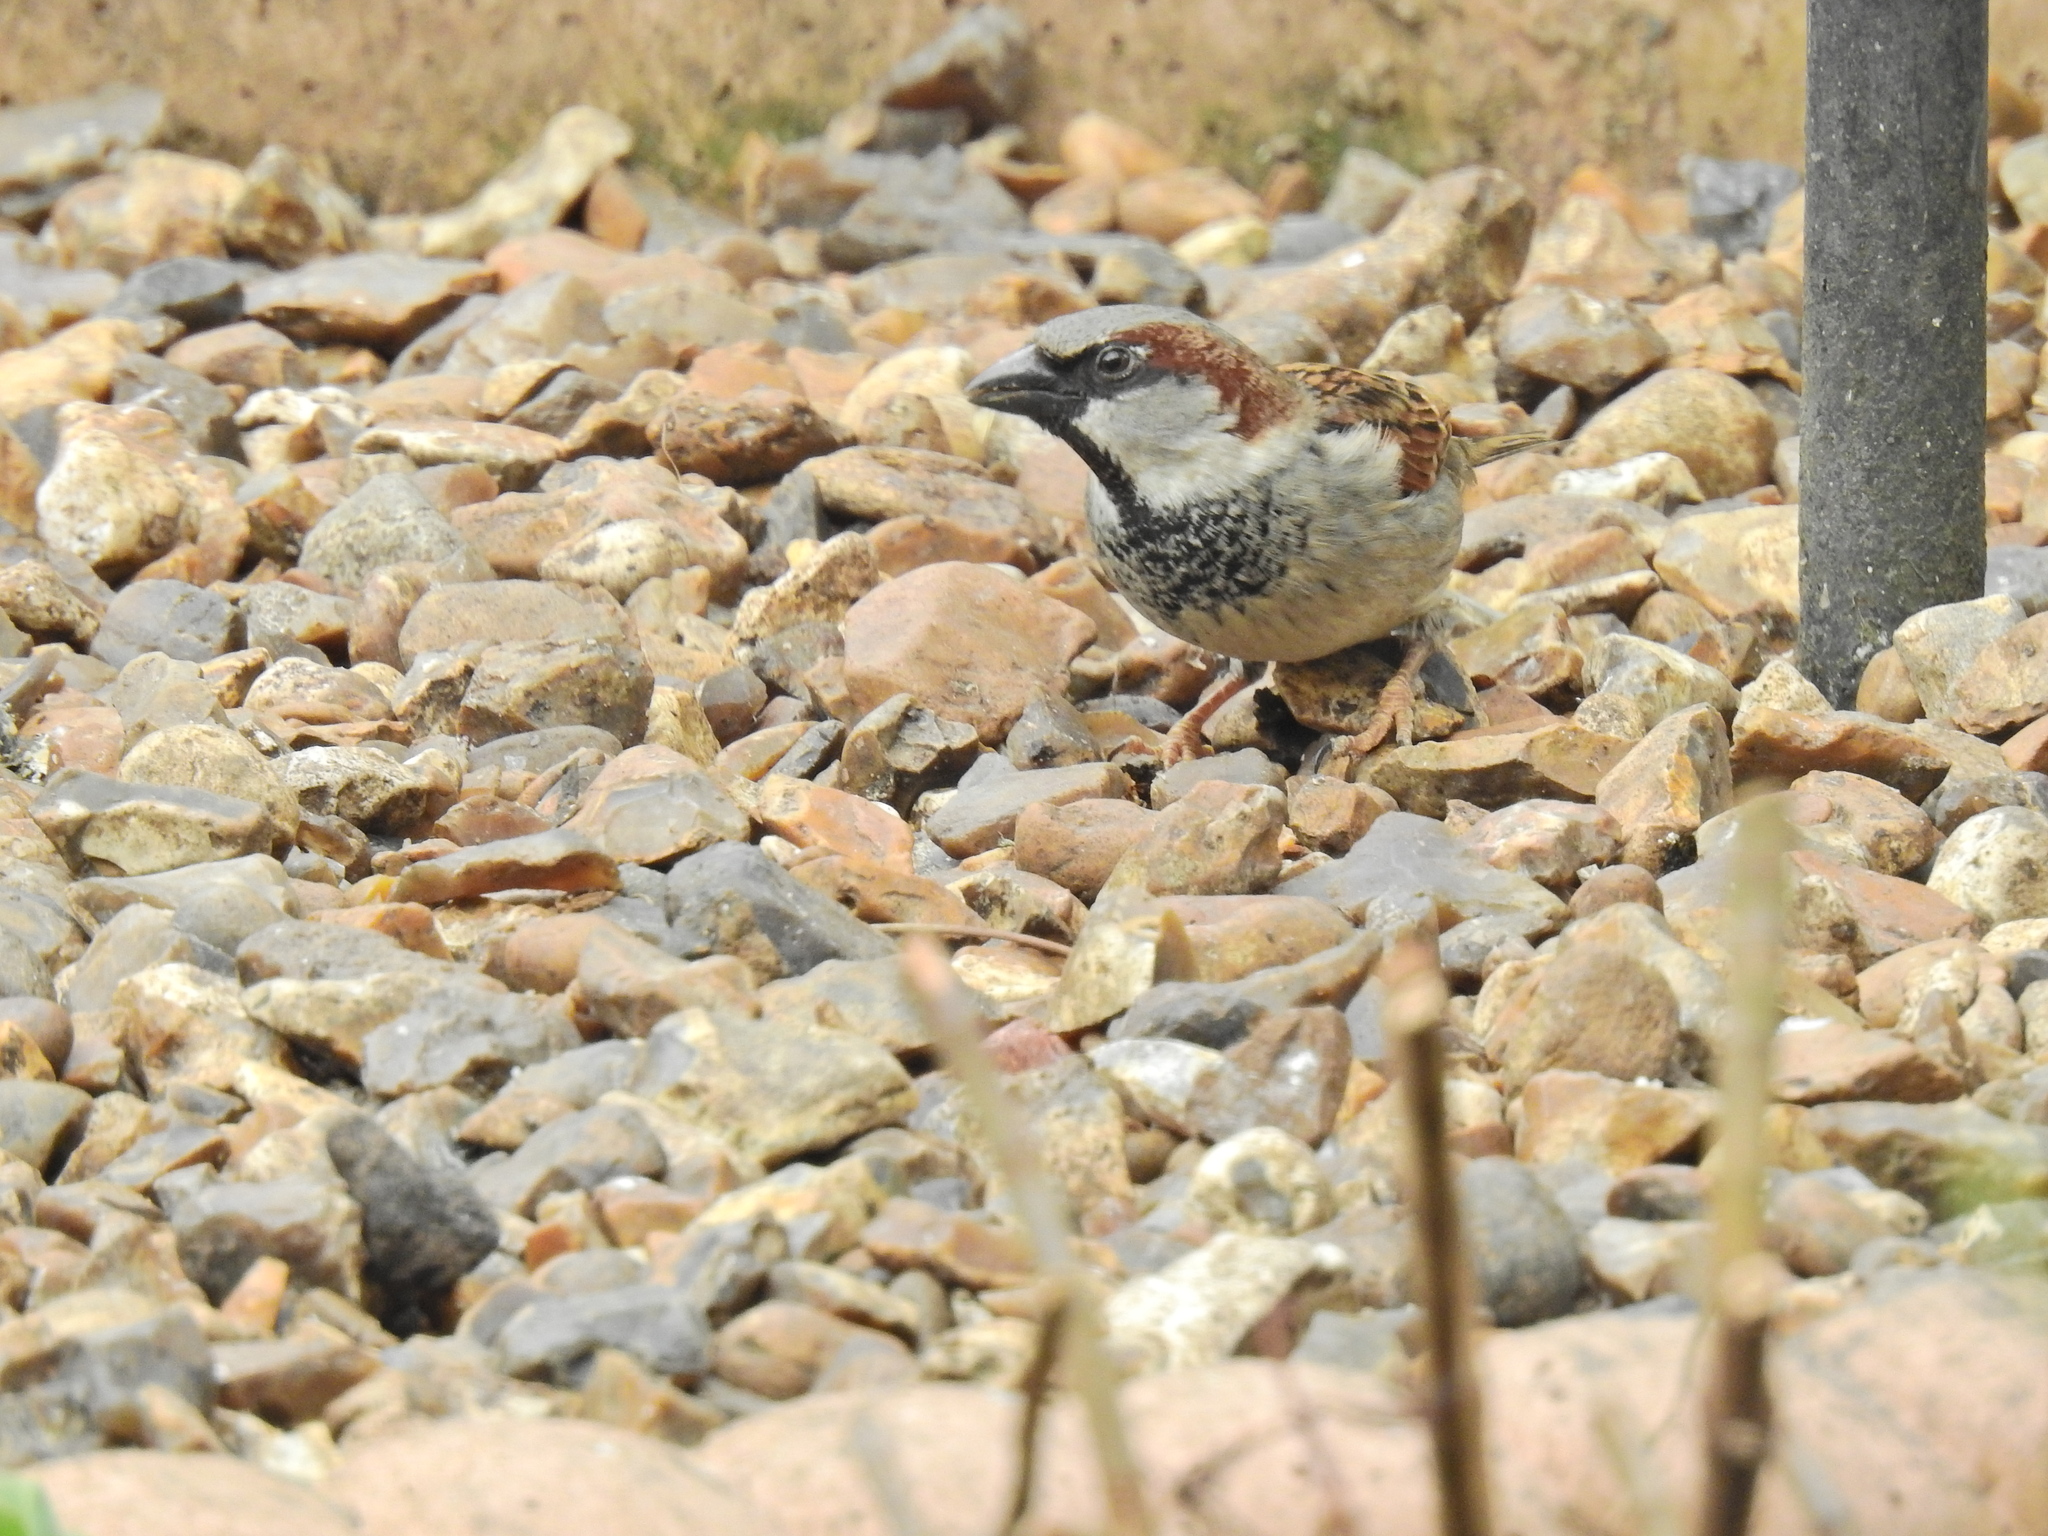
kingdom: Animalia
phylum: Chordata
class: Aves
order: Passeriformes
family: Passeridae
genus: Passer
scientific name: Passer domesticus
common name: House sparrow
